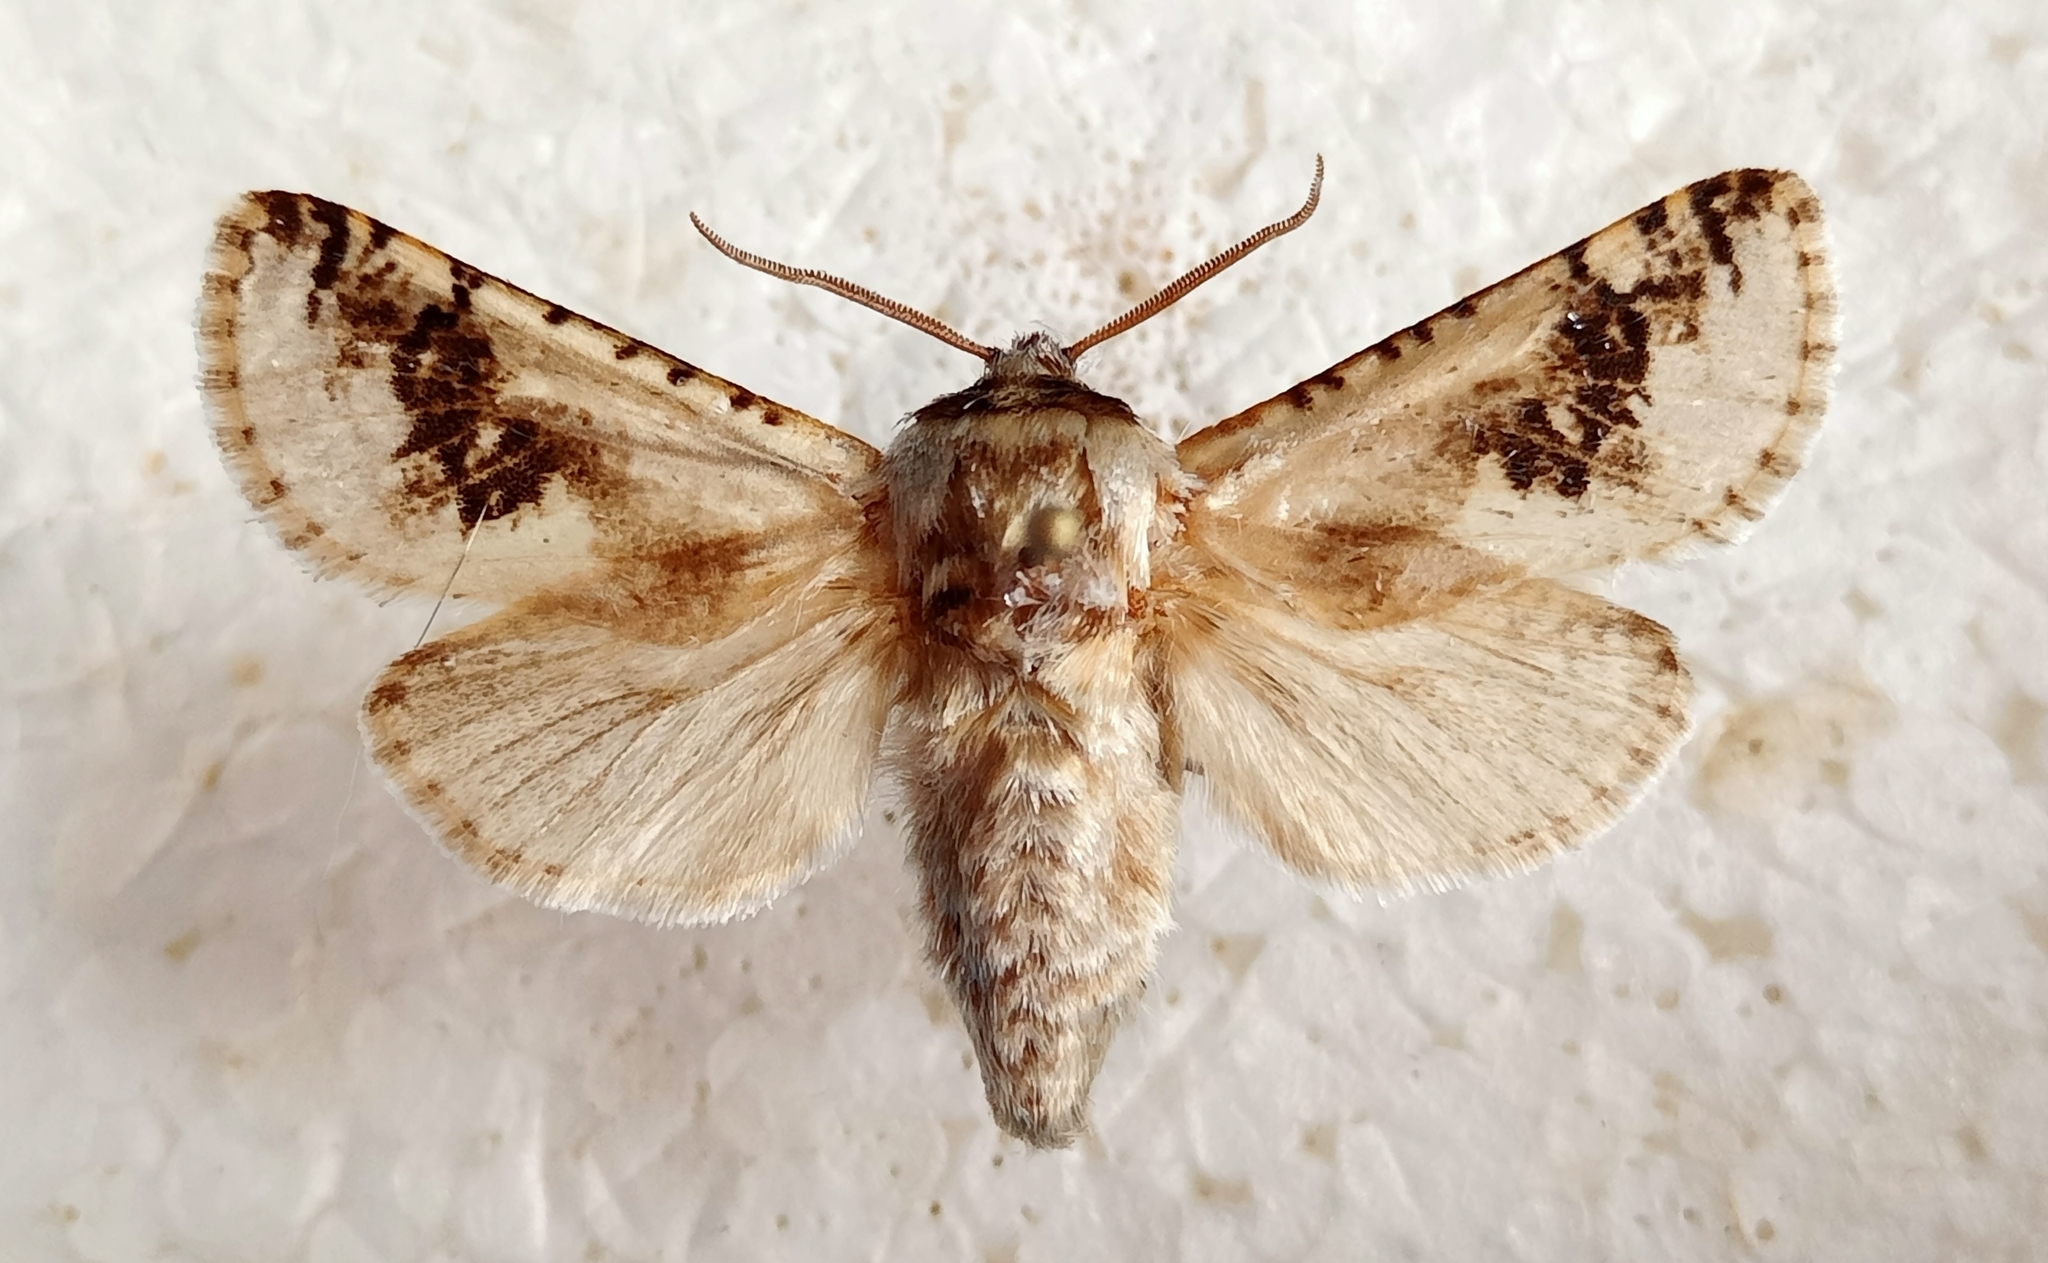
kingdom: Animalia
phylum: Arthropoda
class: Insecta
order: Lepidoptera
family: Cossidae
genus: Parahypopta
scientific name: Parahypopta caestrum
